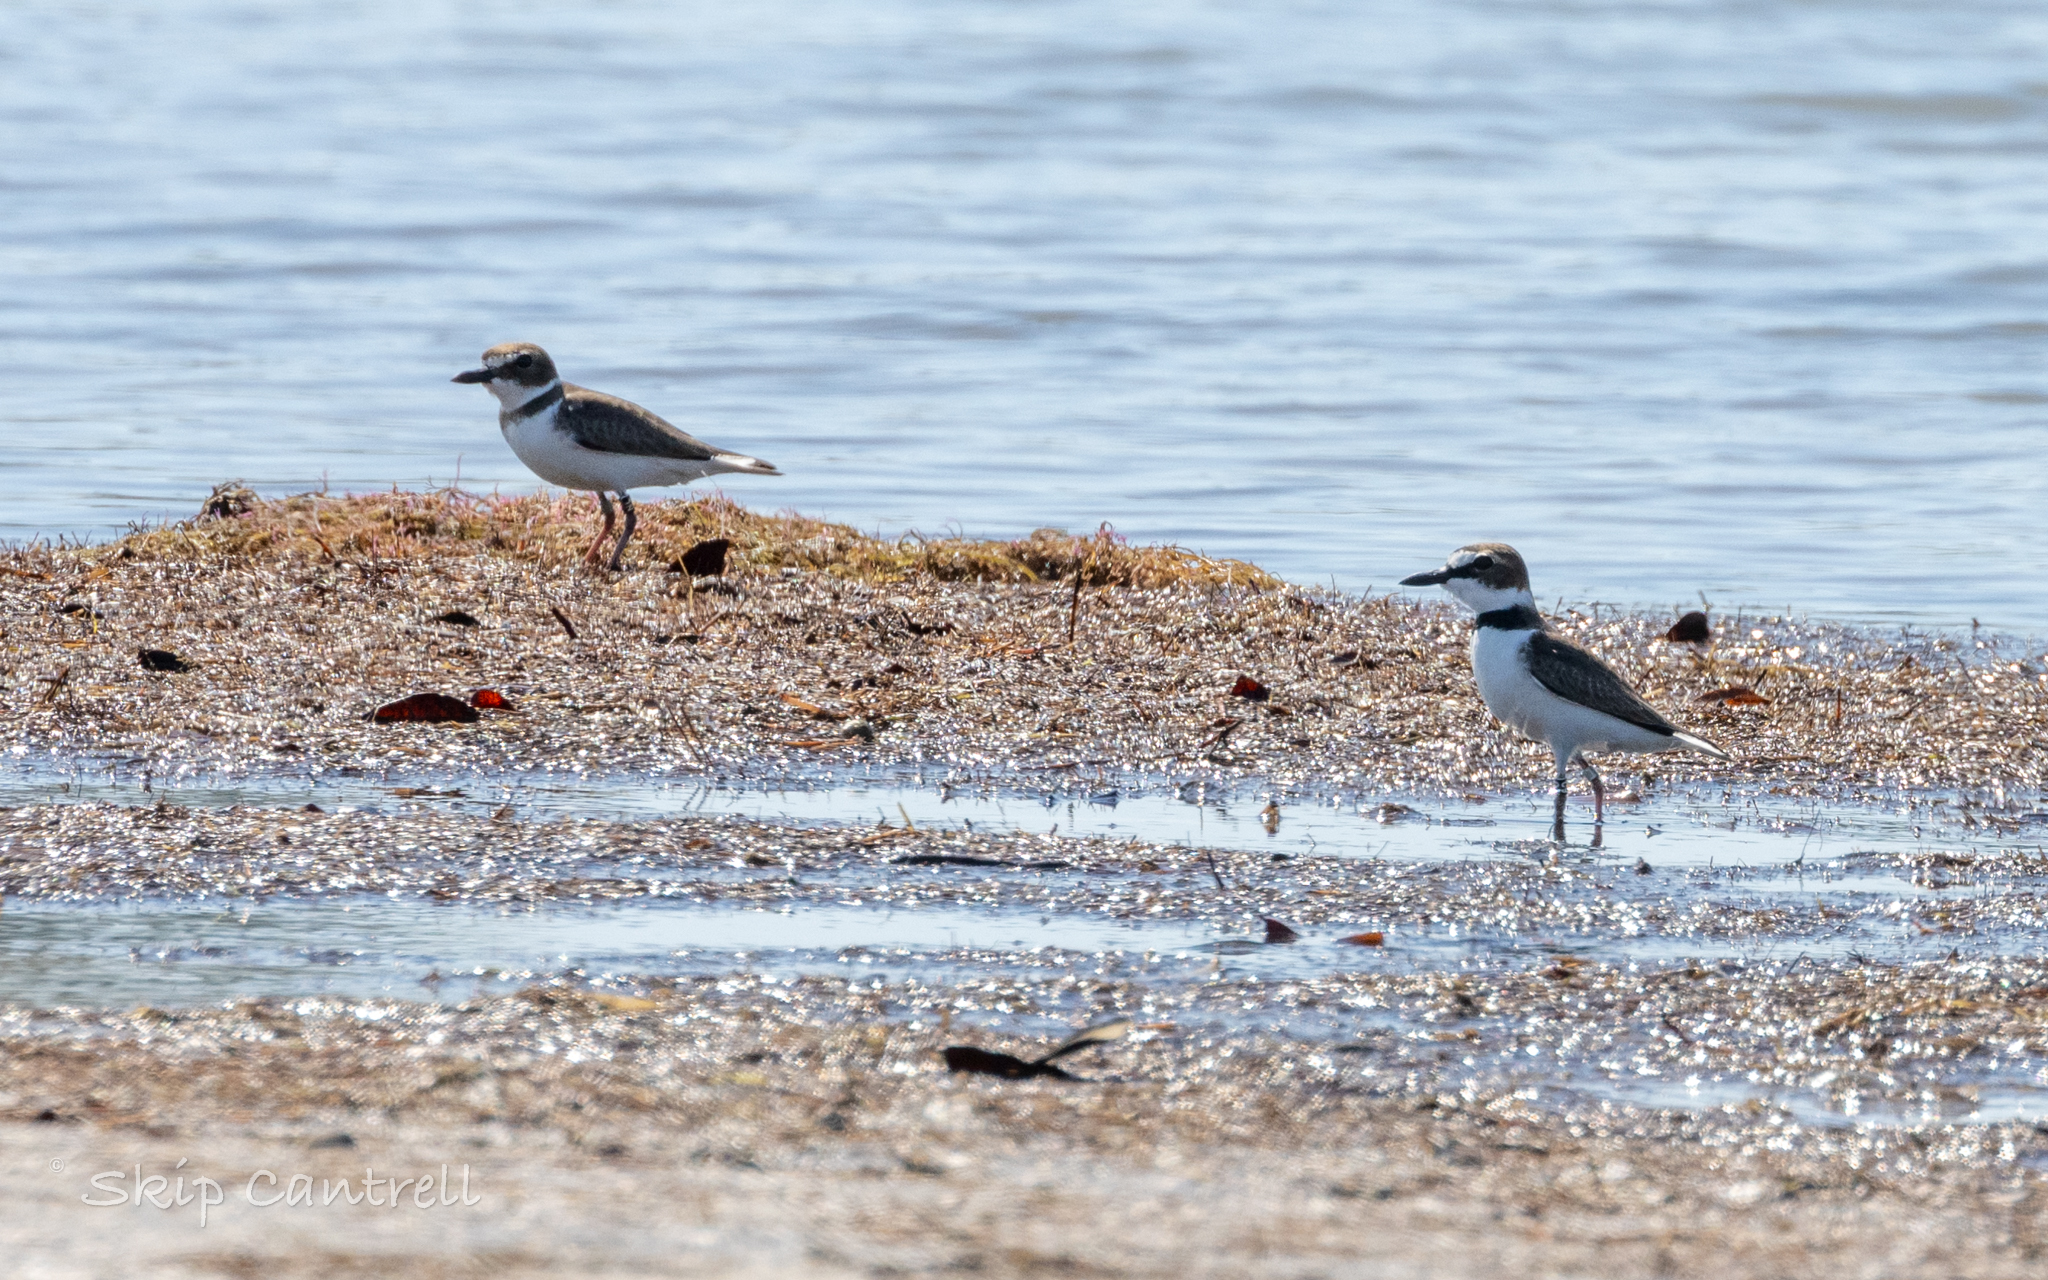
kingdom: Animalia
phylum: Chordata
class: Aves
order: Charadriiformes
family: Charadriidae
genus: Anarhynchus
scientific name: Anarhynchus
